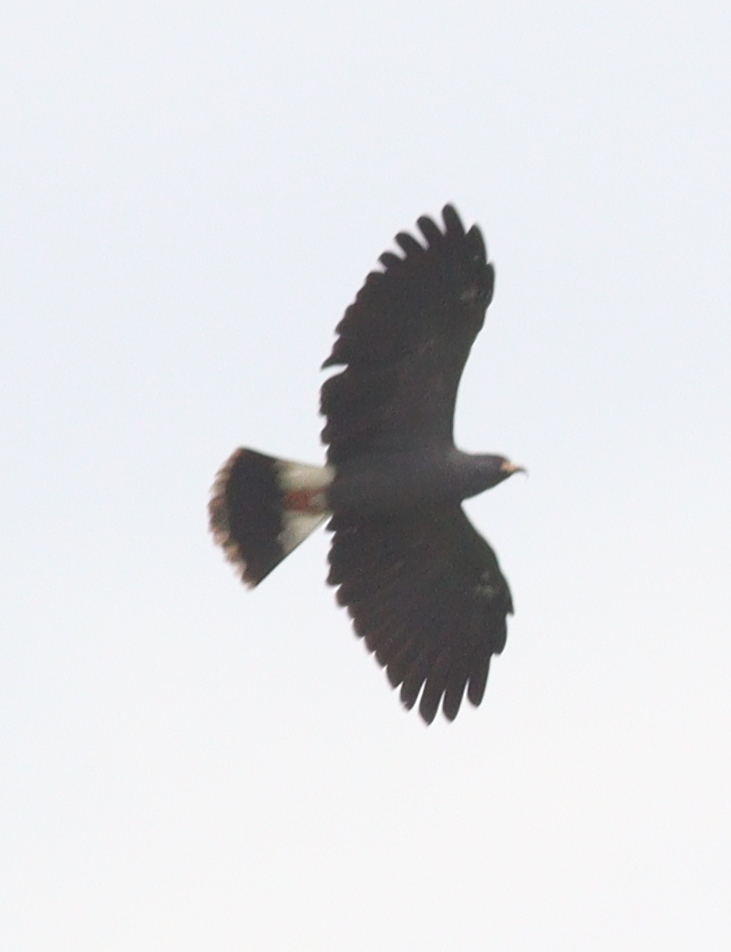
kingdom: Animalia
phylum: Chordata
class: Aves
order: Accipitriformes
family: Accipitridae
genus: Rostrhamus
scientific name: Rostrhamus sociabilis
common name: Snail kite
